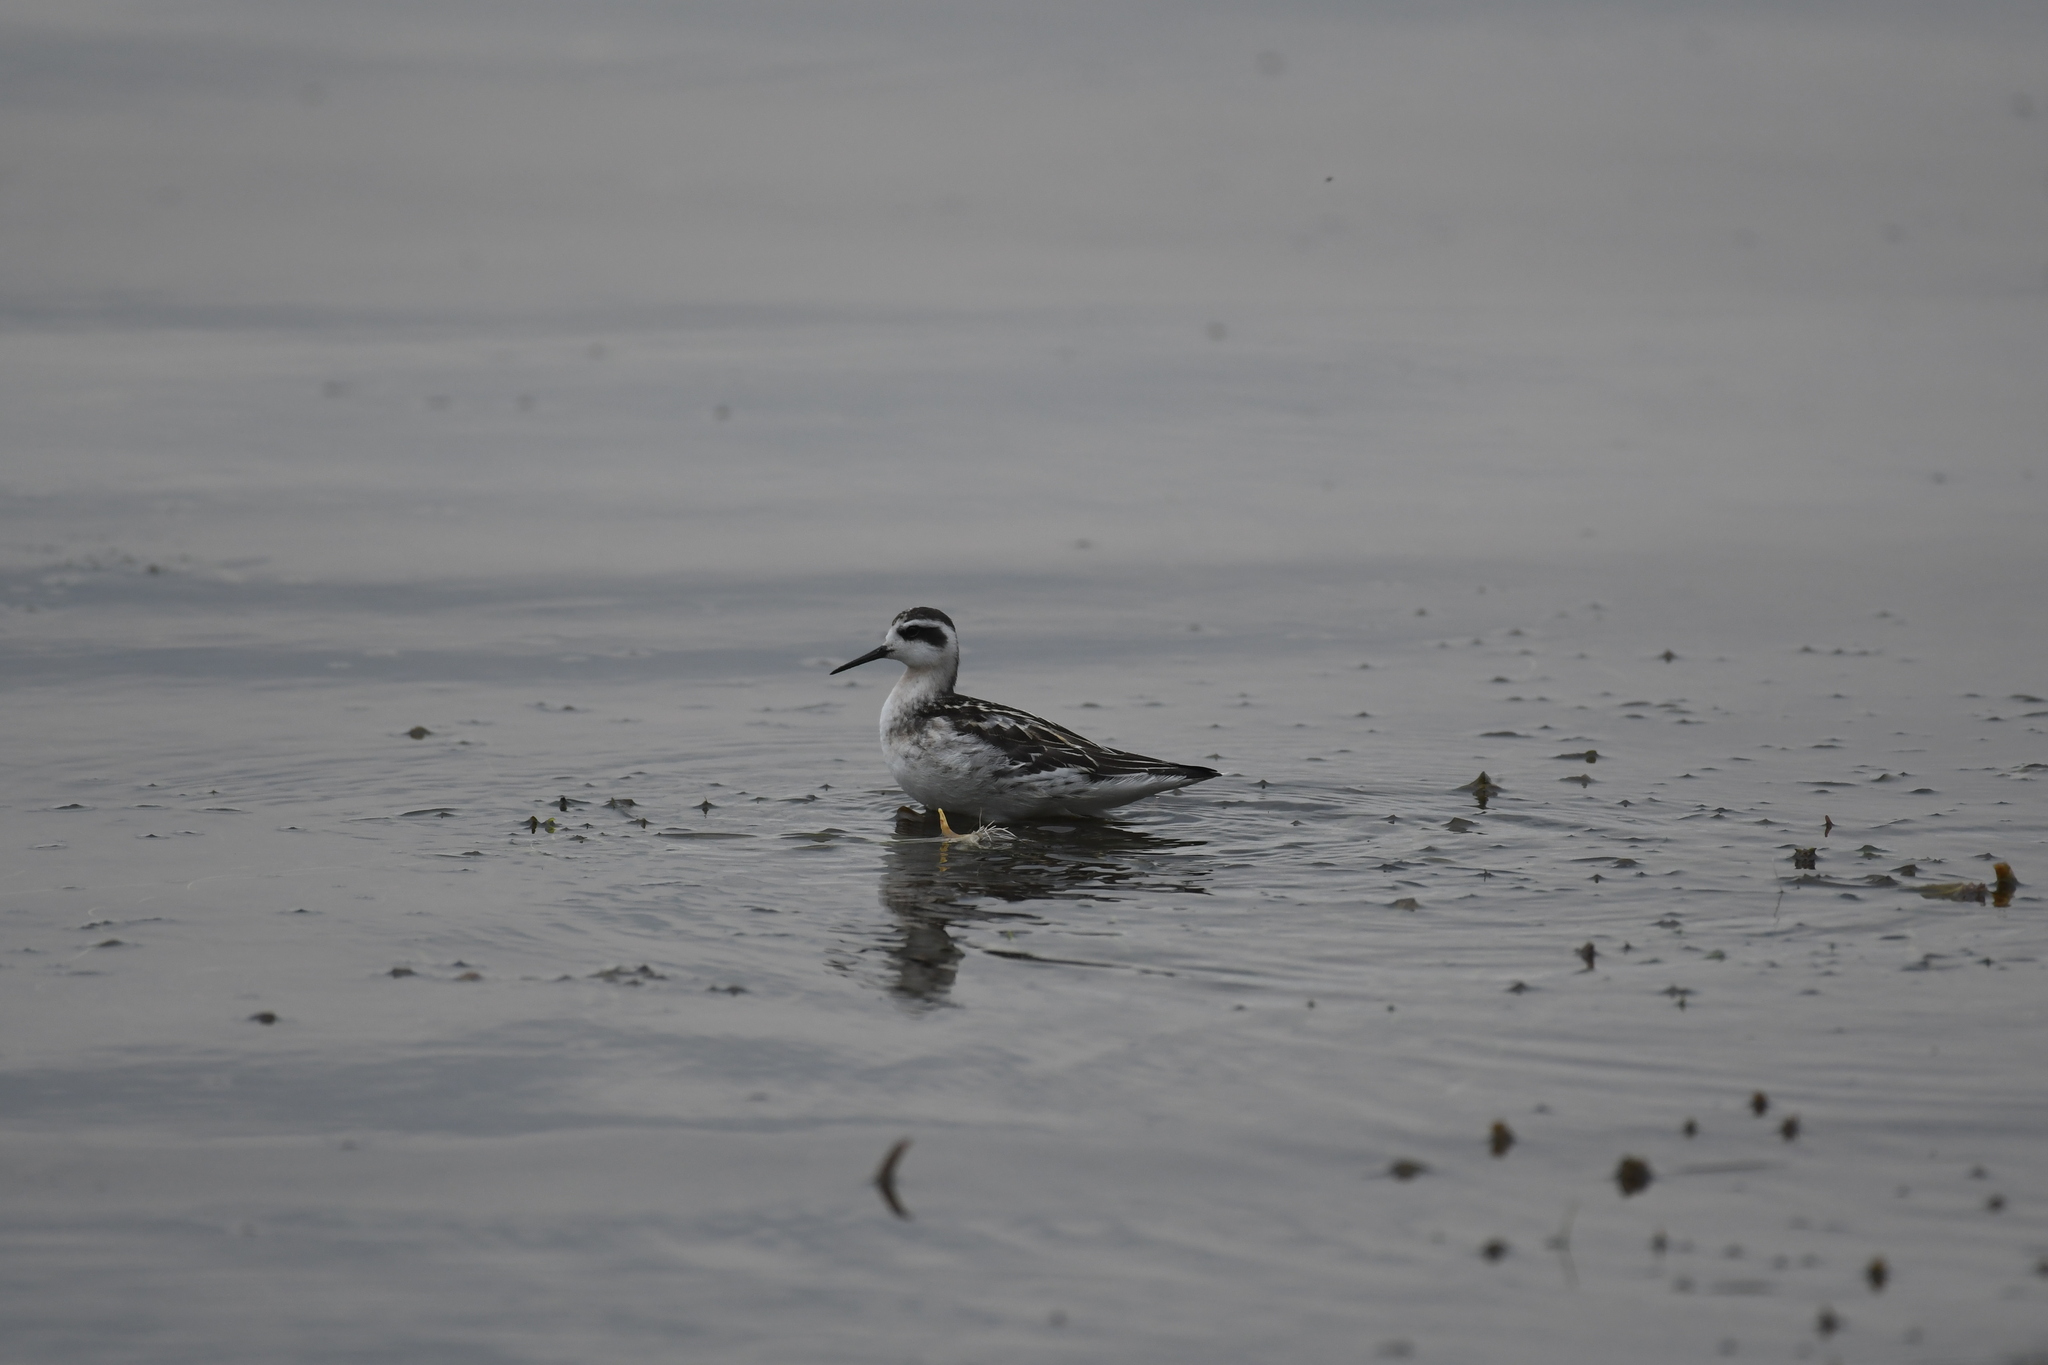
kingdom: Animalia
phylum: Chordata
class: Aves
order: Charadriiformes
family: Scolopacidae
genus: Phalaropus
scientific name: Phalaropus lobatus
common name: Red-necked phalarope
